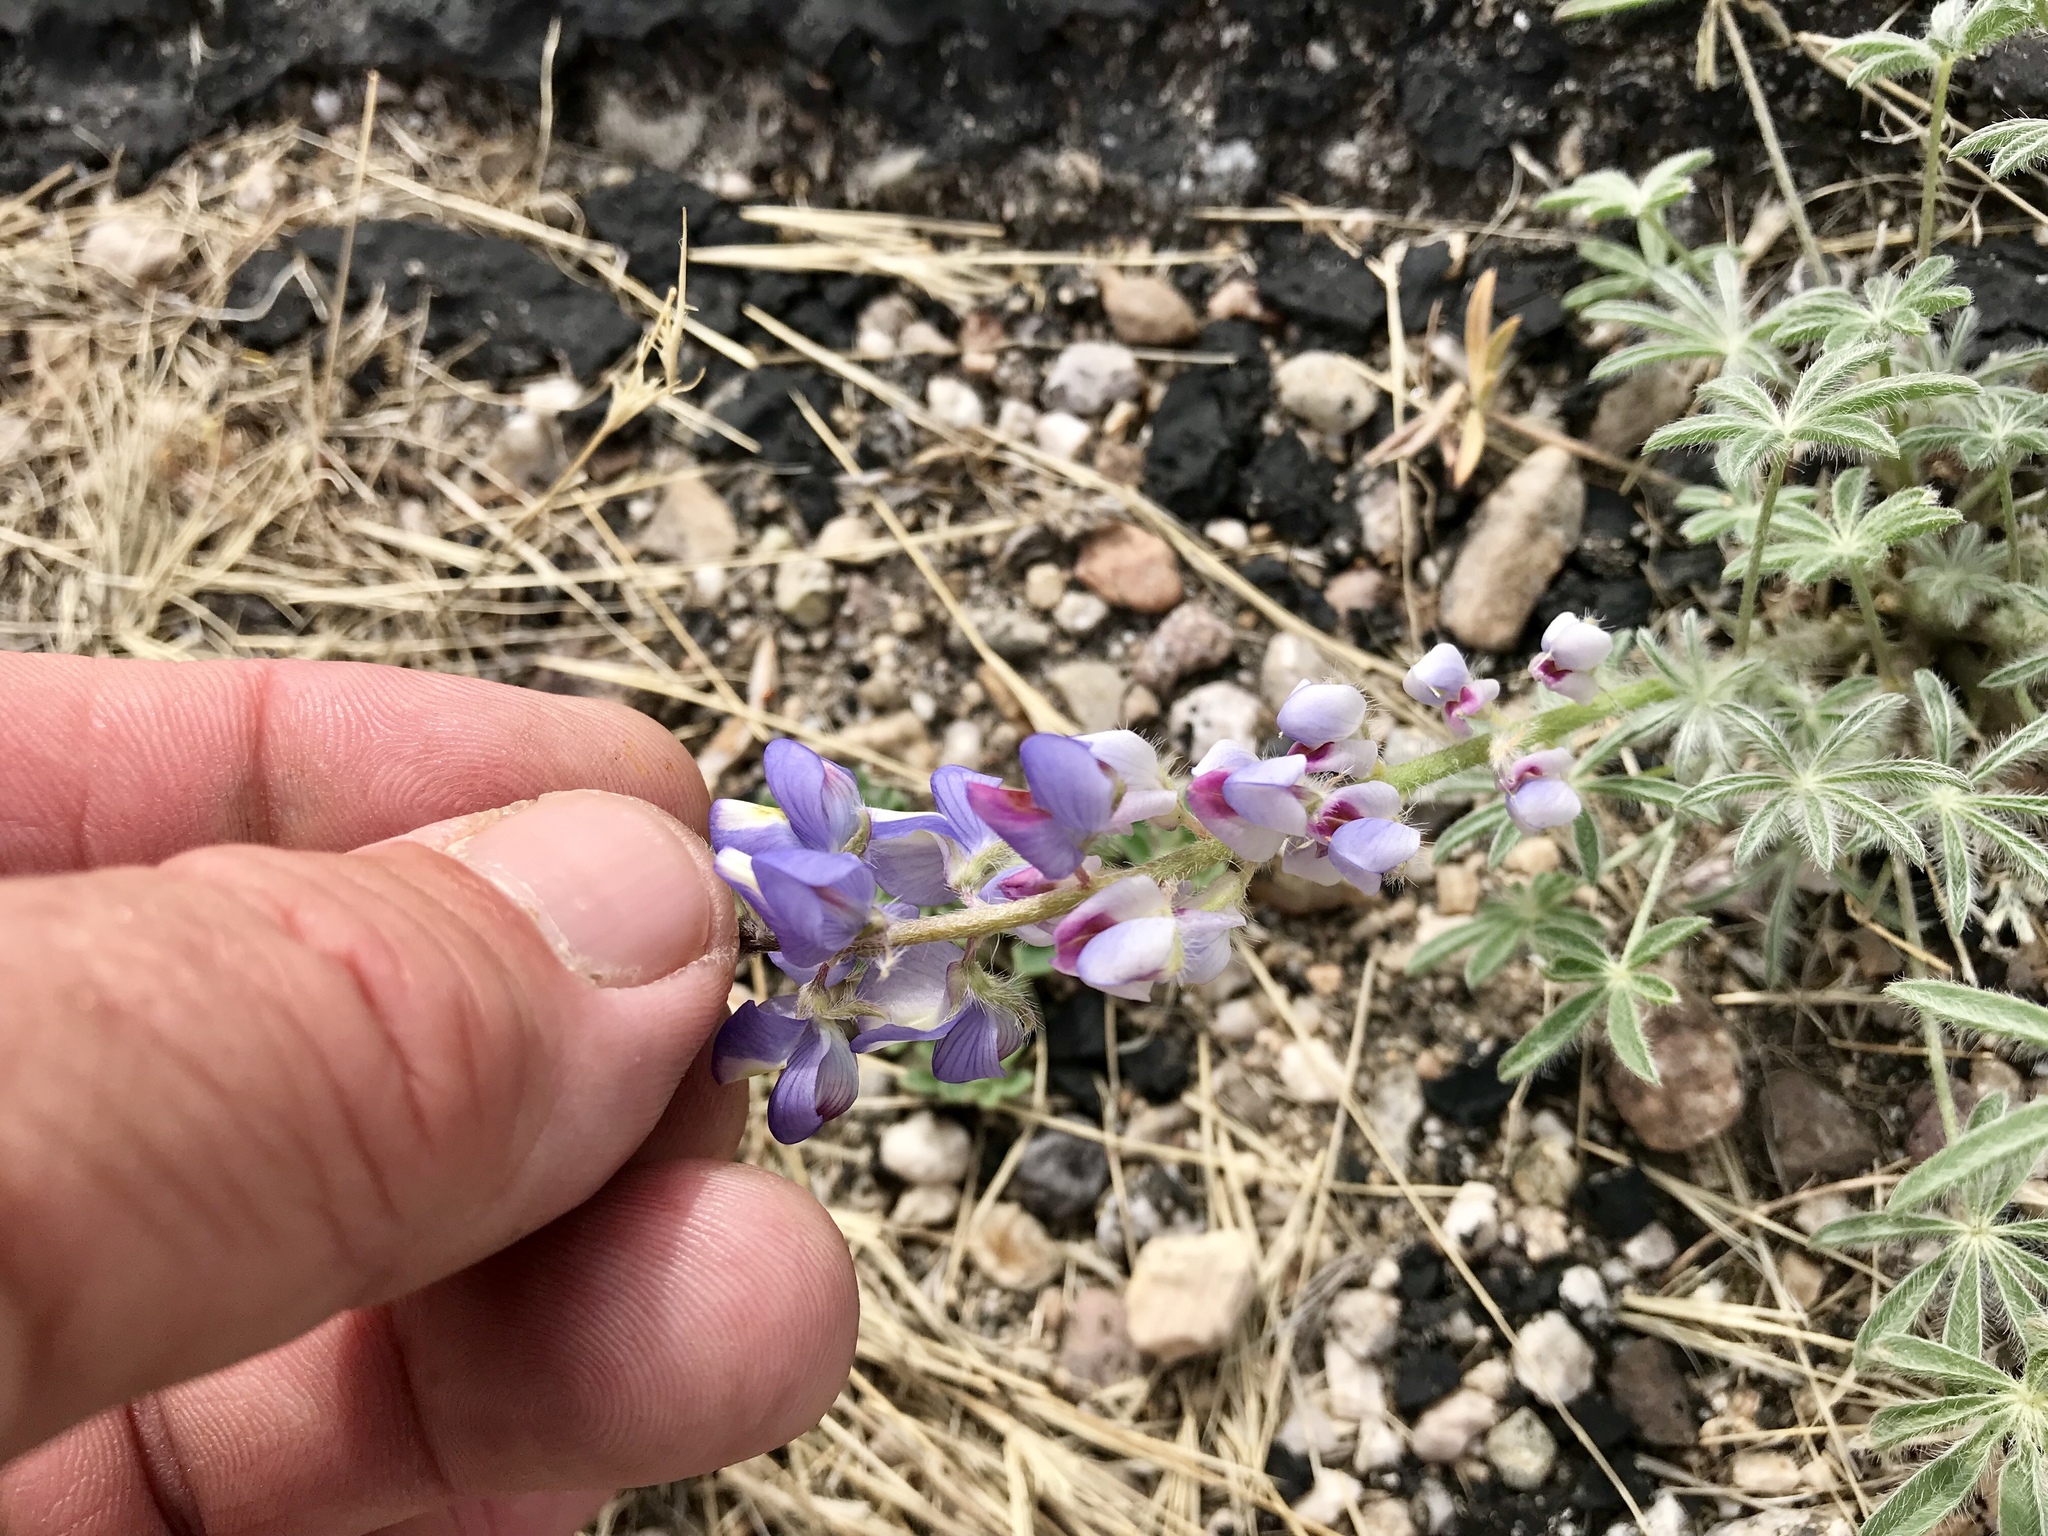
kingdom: Plantae
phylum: Tracheophyta
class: Magnoliopsida
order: Fabales
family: Fabaceae
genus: Lupinus
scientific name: Lupinus sparsiflorus
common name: Coulter's lupine
